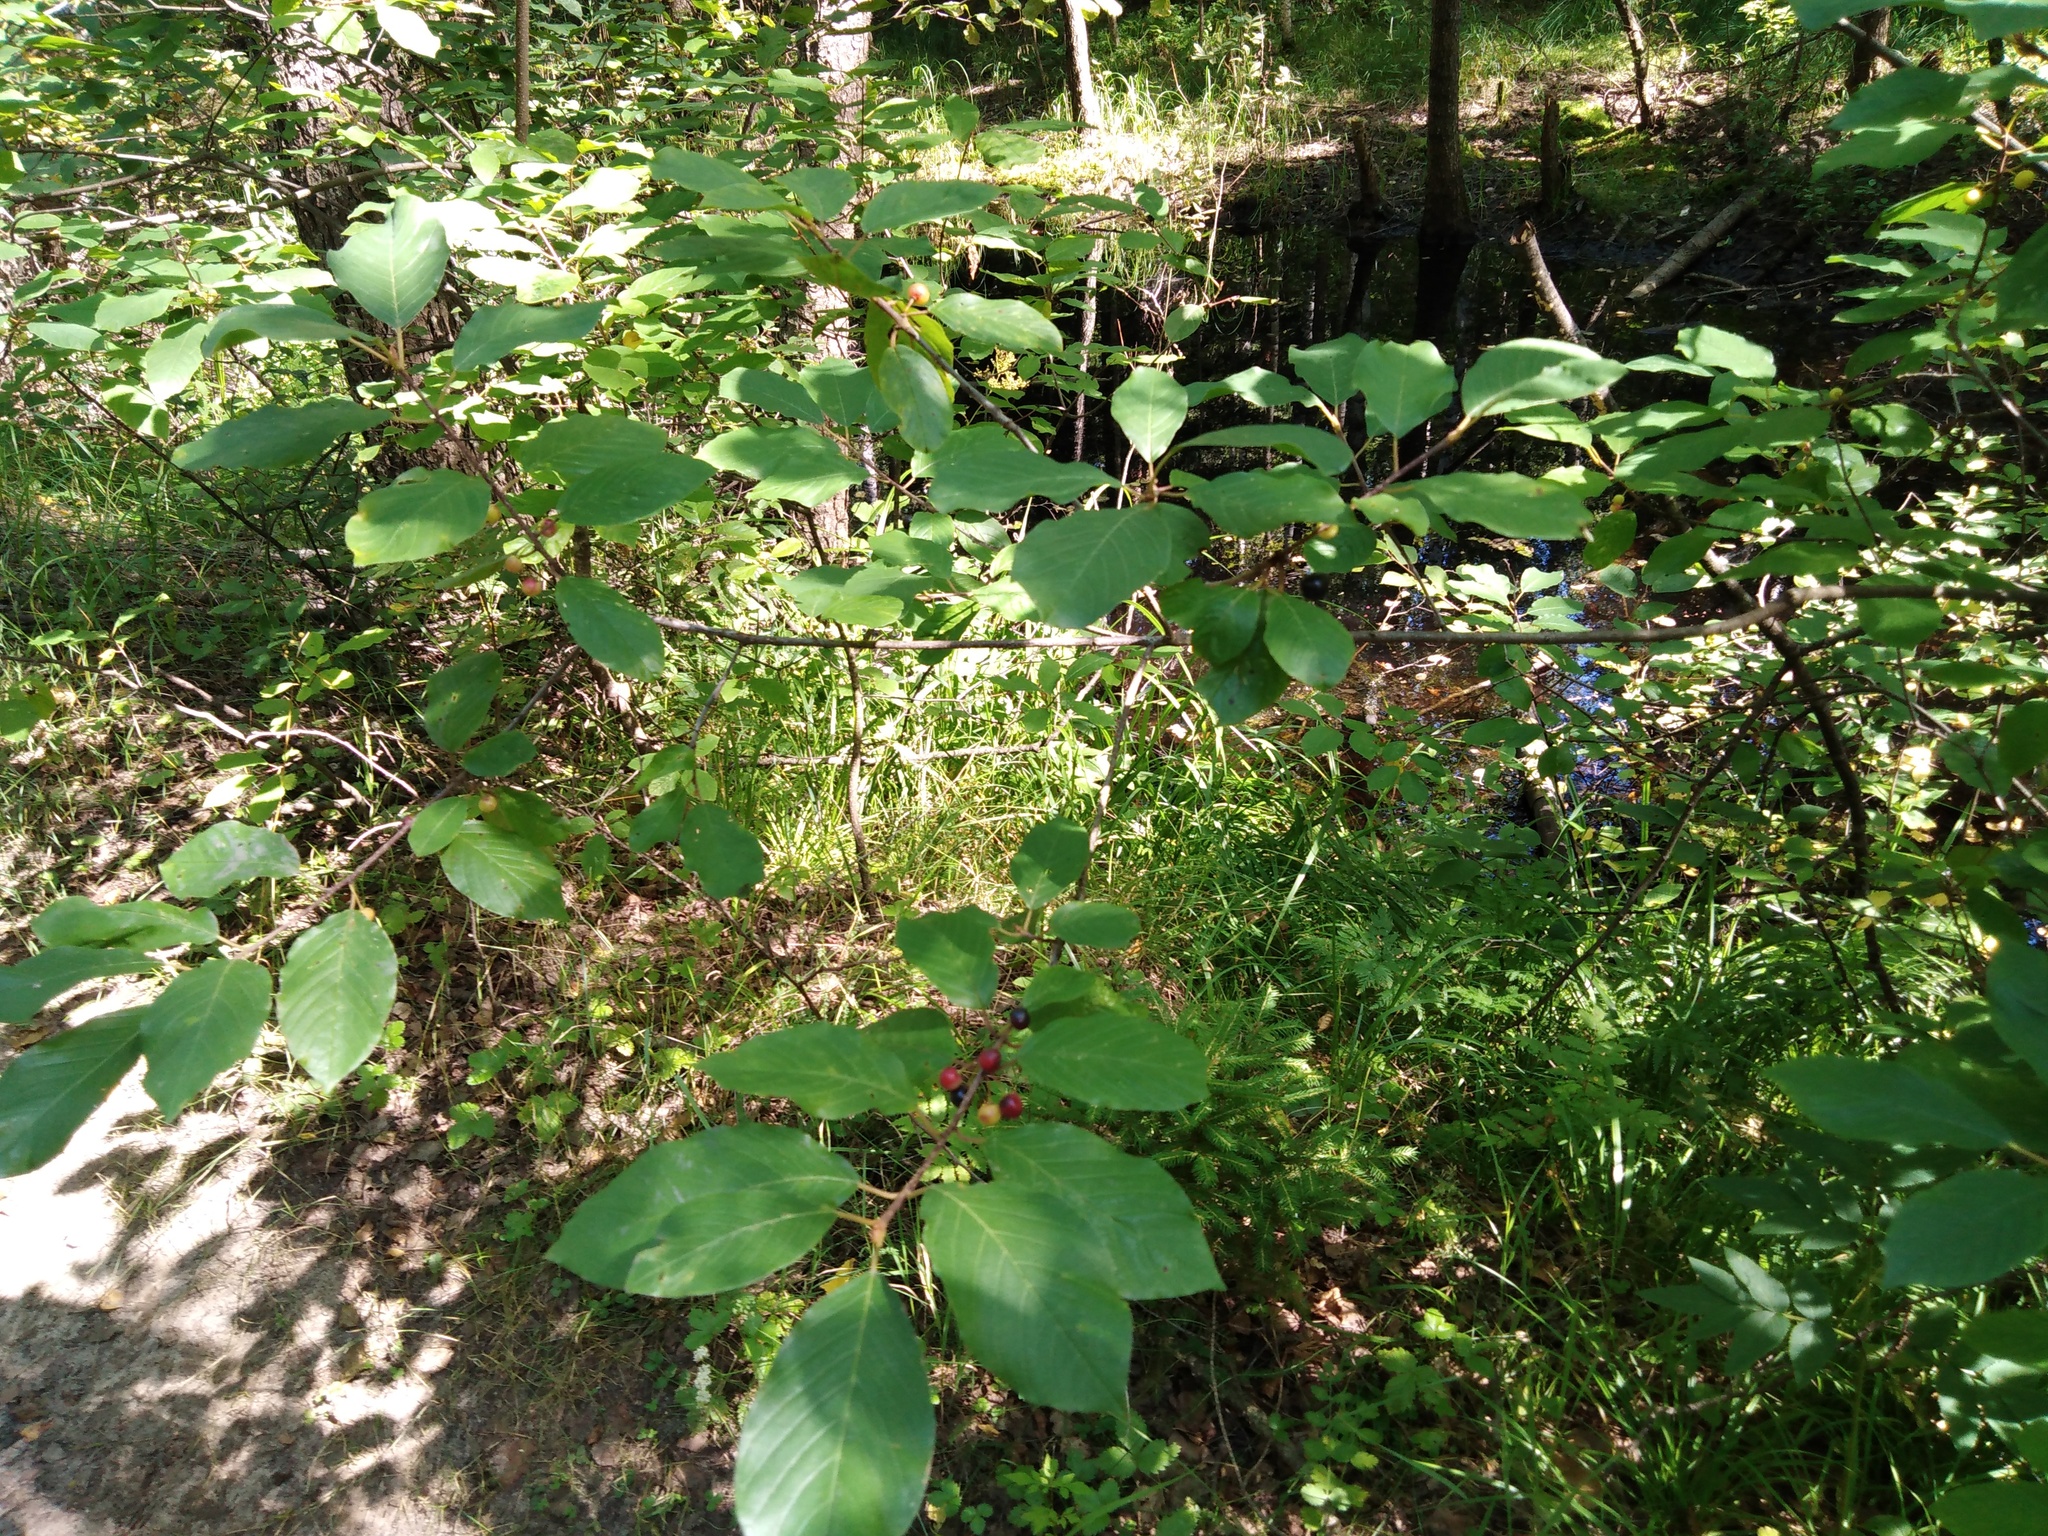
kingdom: Plantae
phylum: Tracheophyta
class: Magnoliopsida
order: Rosales
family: Rhamnaceae
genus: Frangula
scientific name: Frangula alnus
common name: Alder buckthorn
